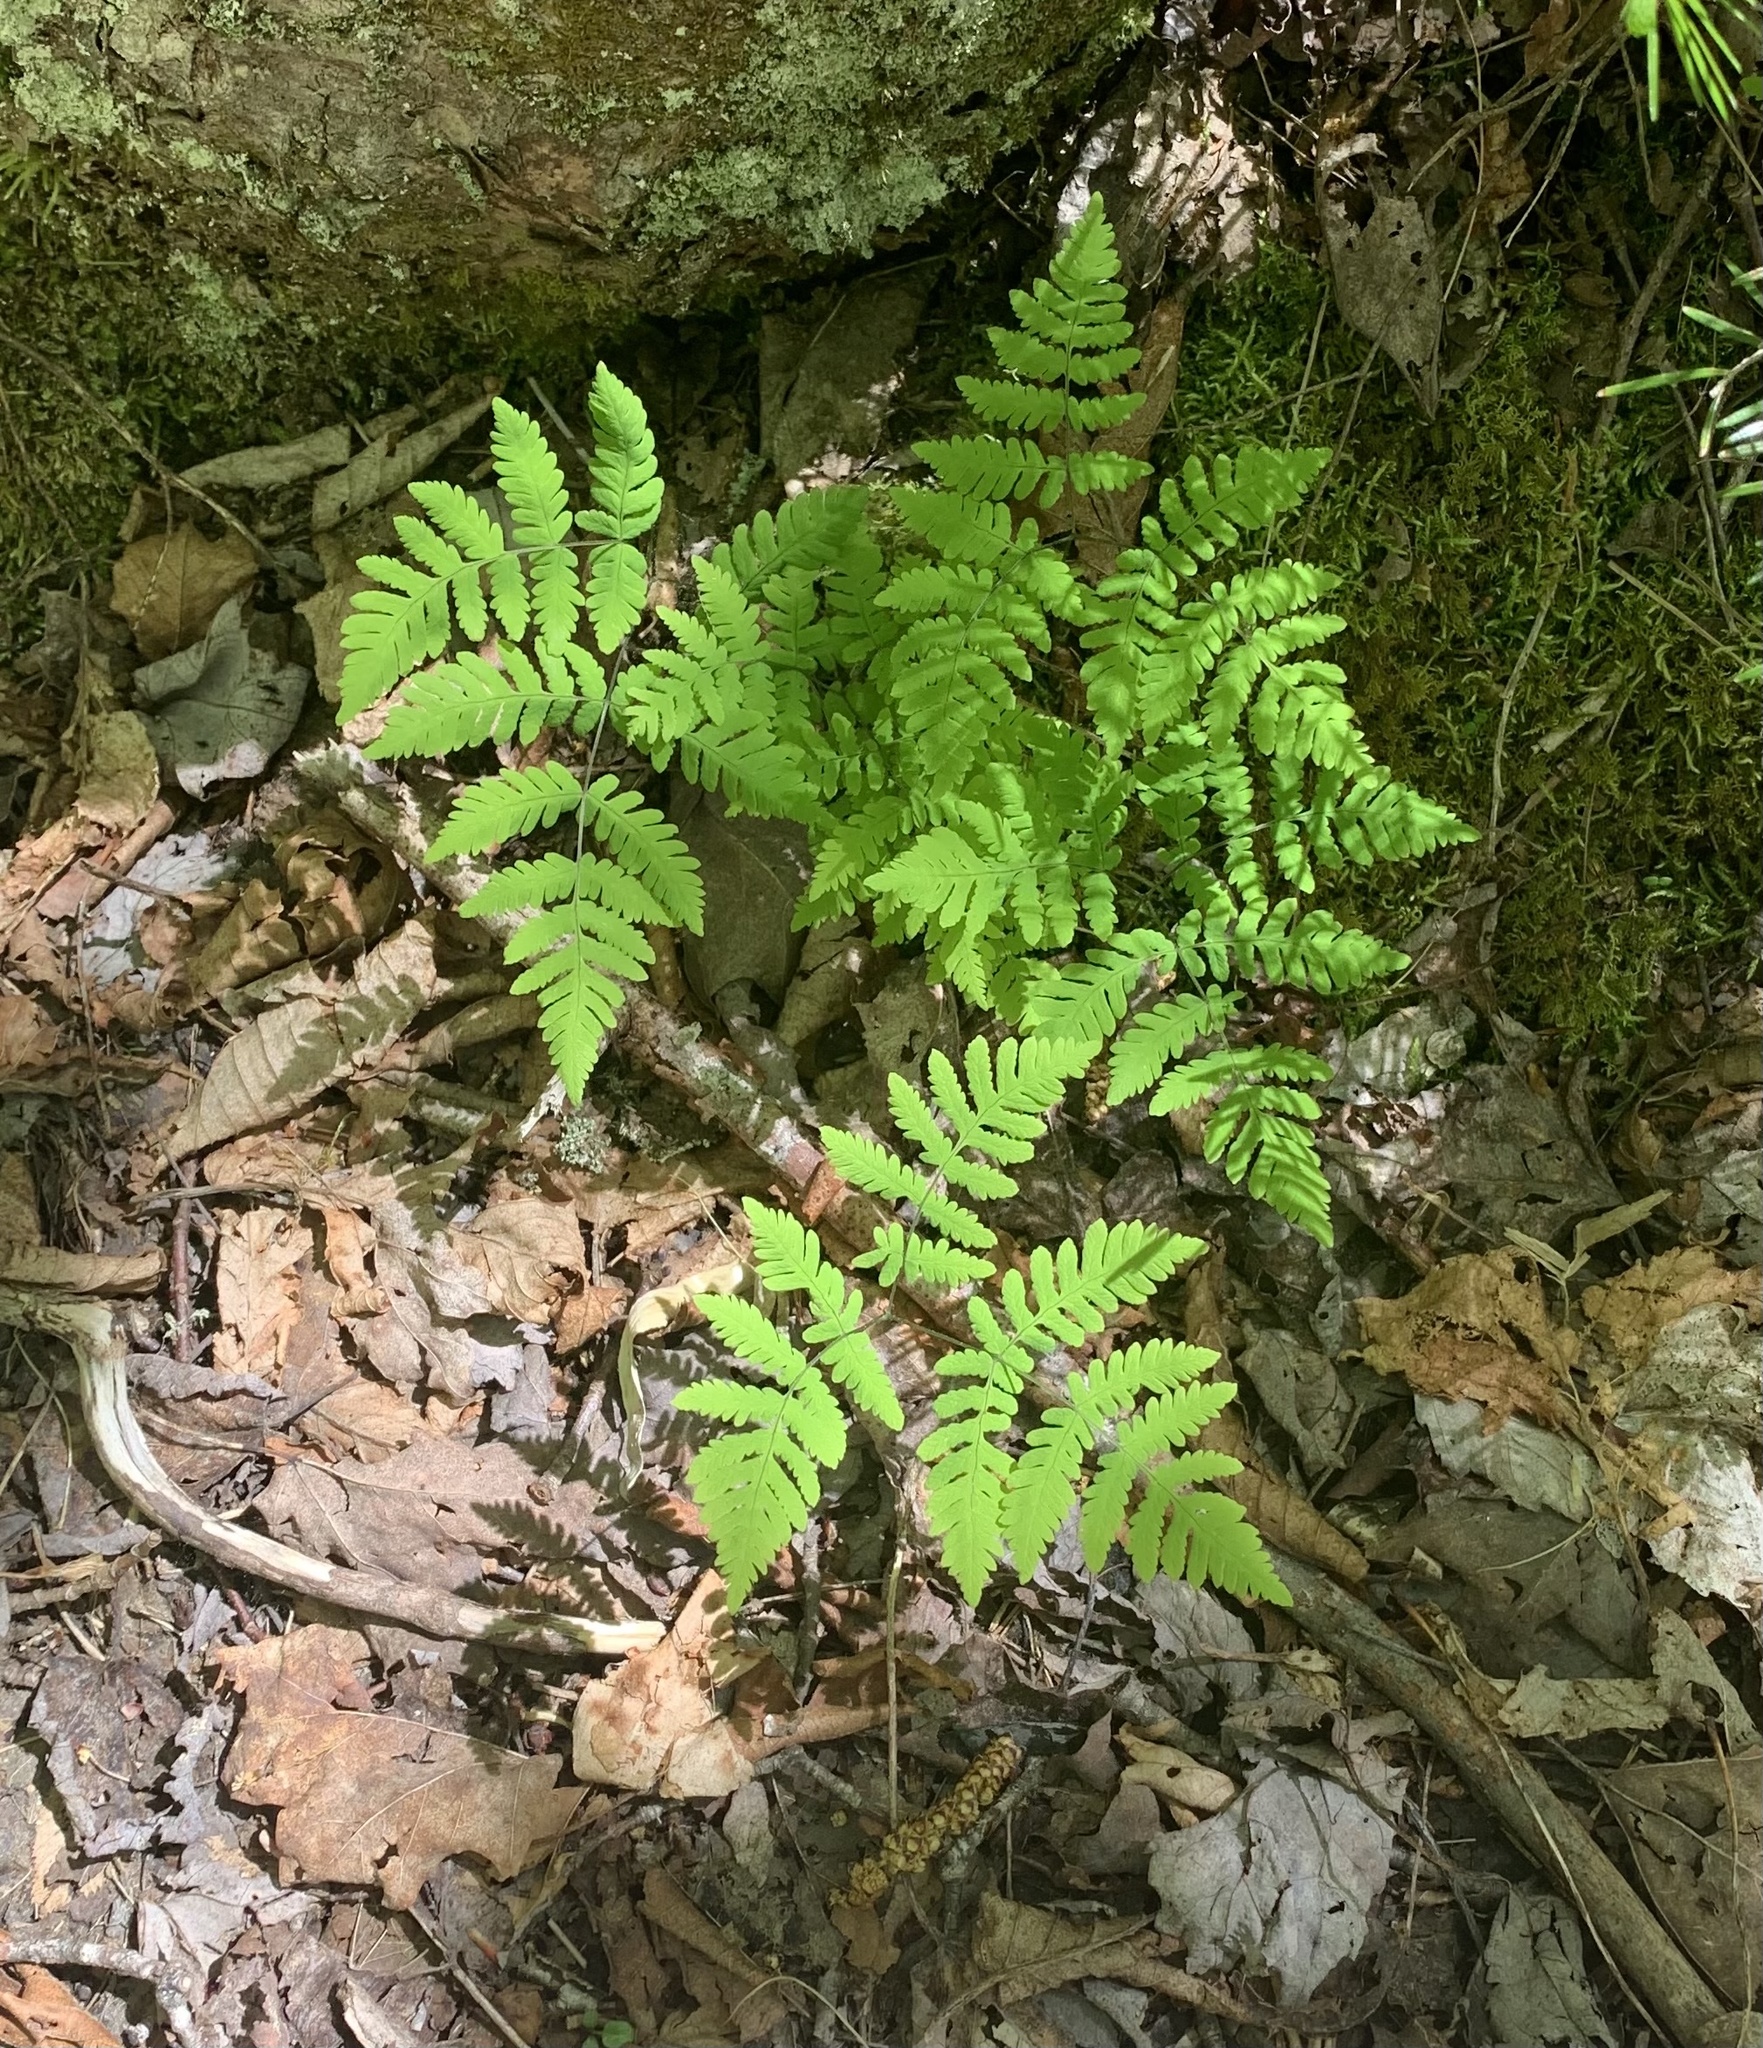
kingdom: Plantae
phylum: Tracheophyta
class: Polypodiopsida
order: Polypodiales
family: Cystopteridaceae
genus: Gymnocarpium
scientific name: Gymnocarpium dryopteris
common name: Oak fern
